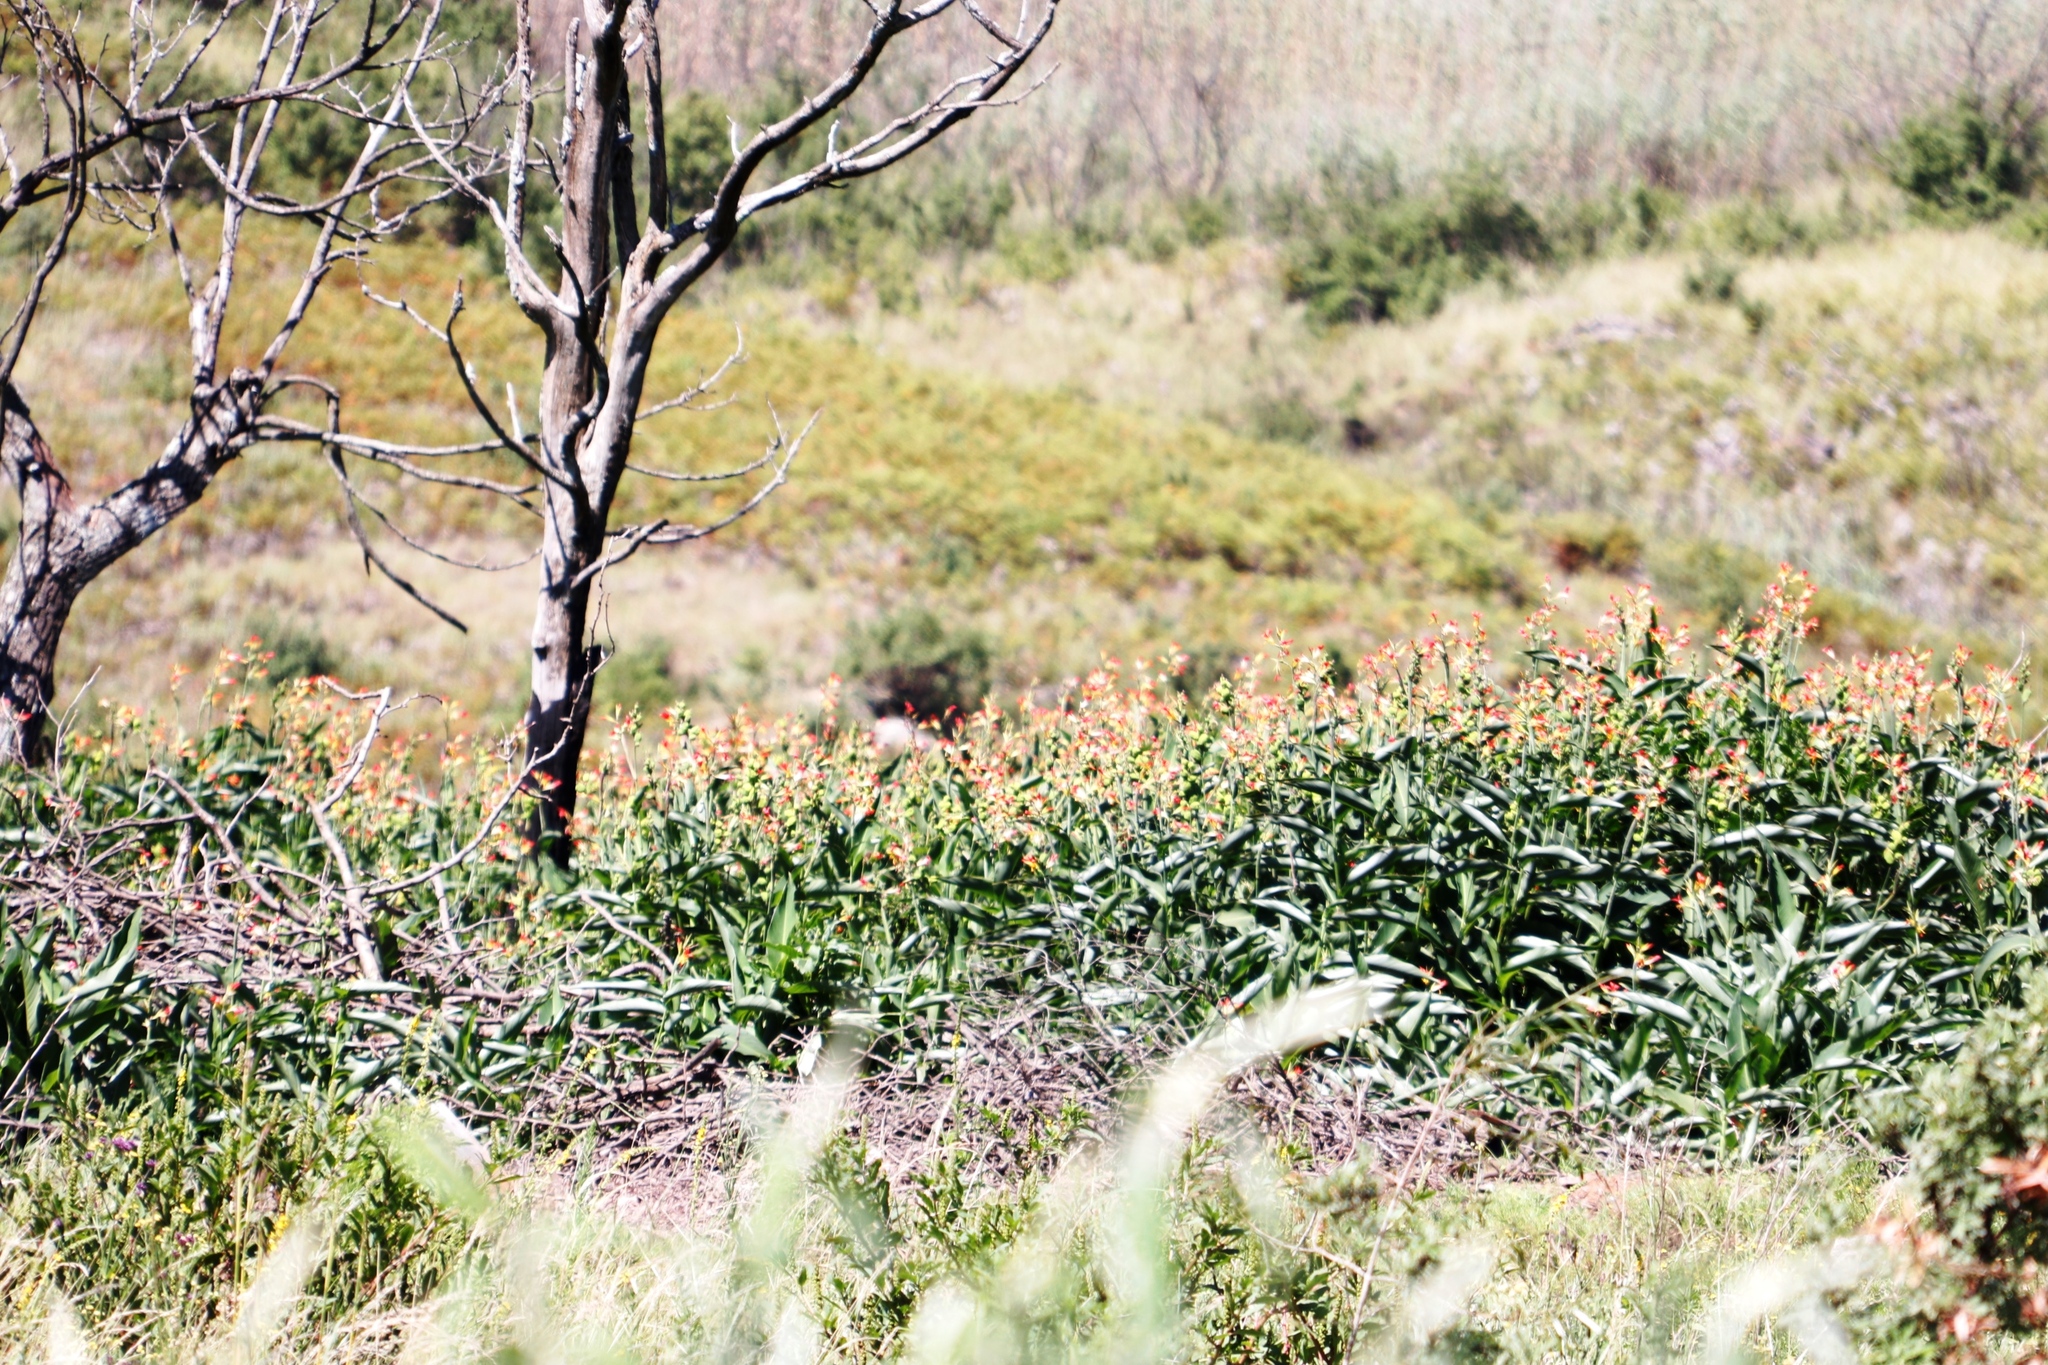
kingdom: Plantae
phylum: Tracheophyta
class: Liliopsida
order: Zingiberales
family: Cannaceae
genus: Canna
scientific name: Canna indica
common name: Indian shot
